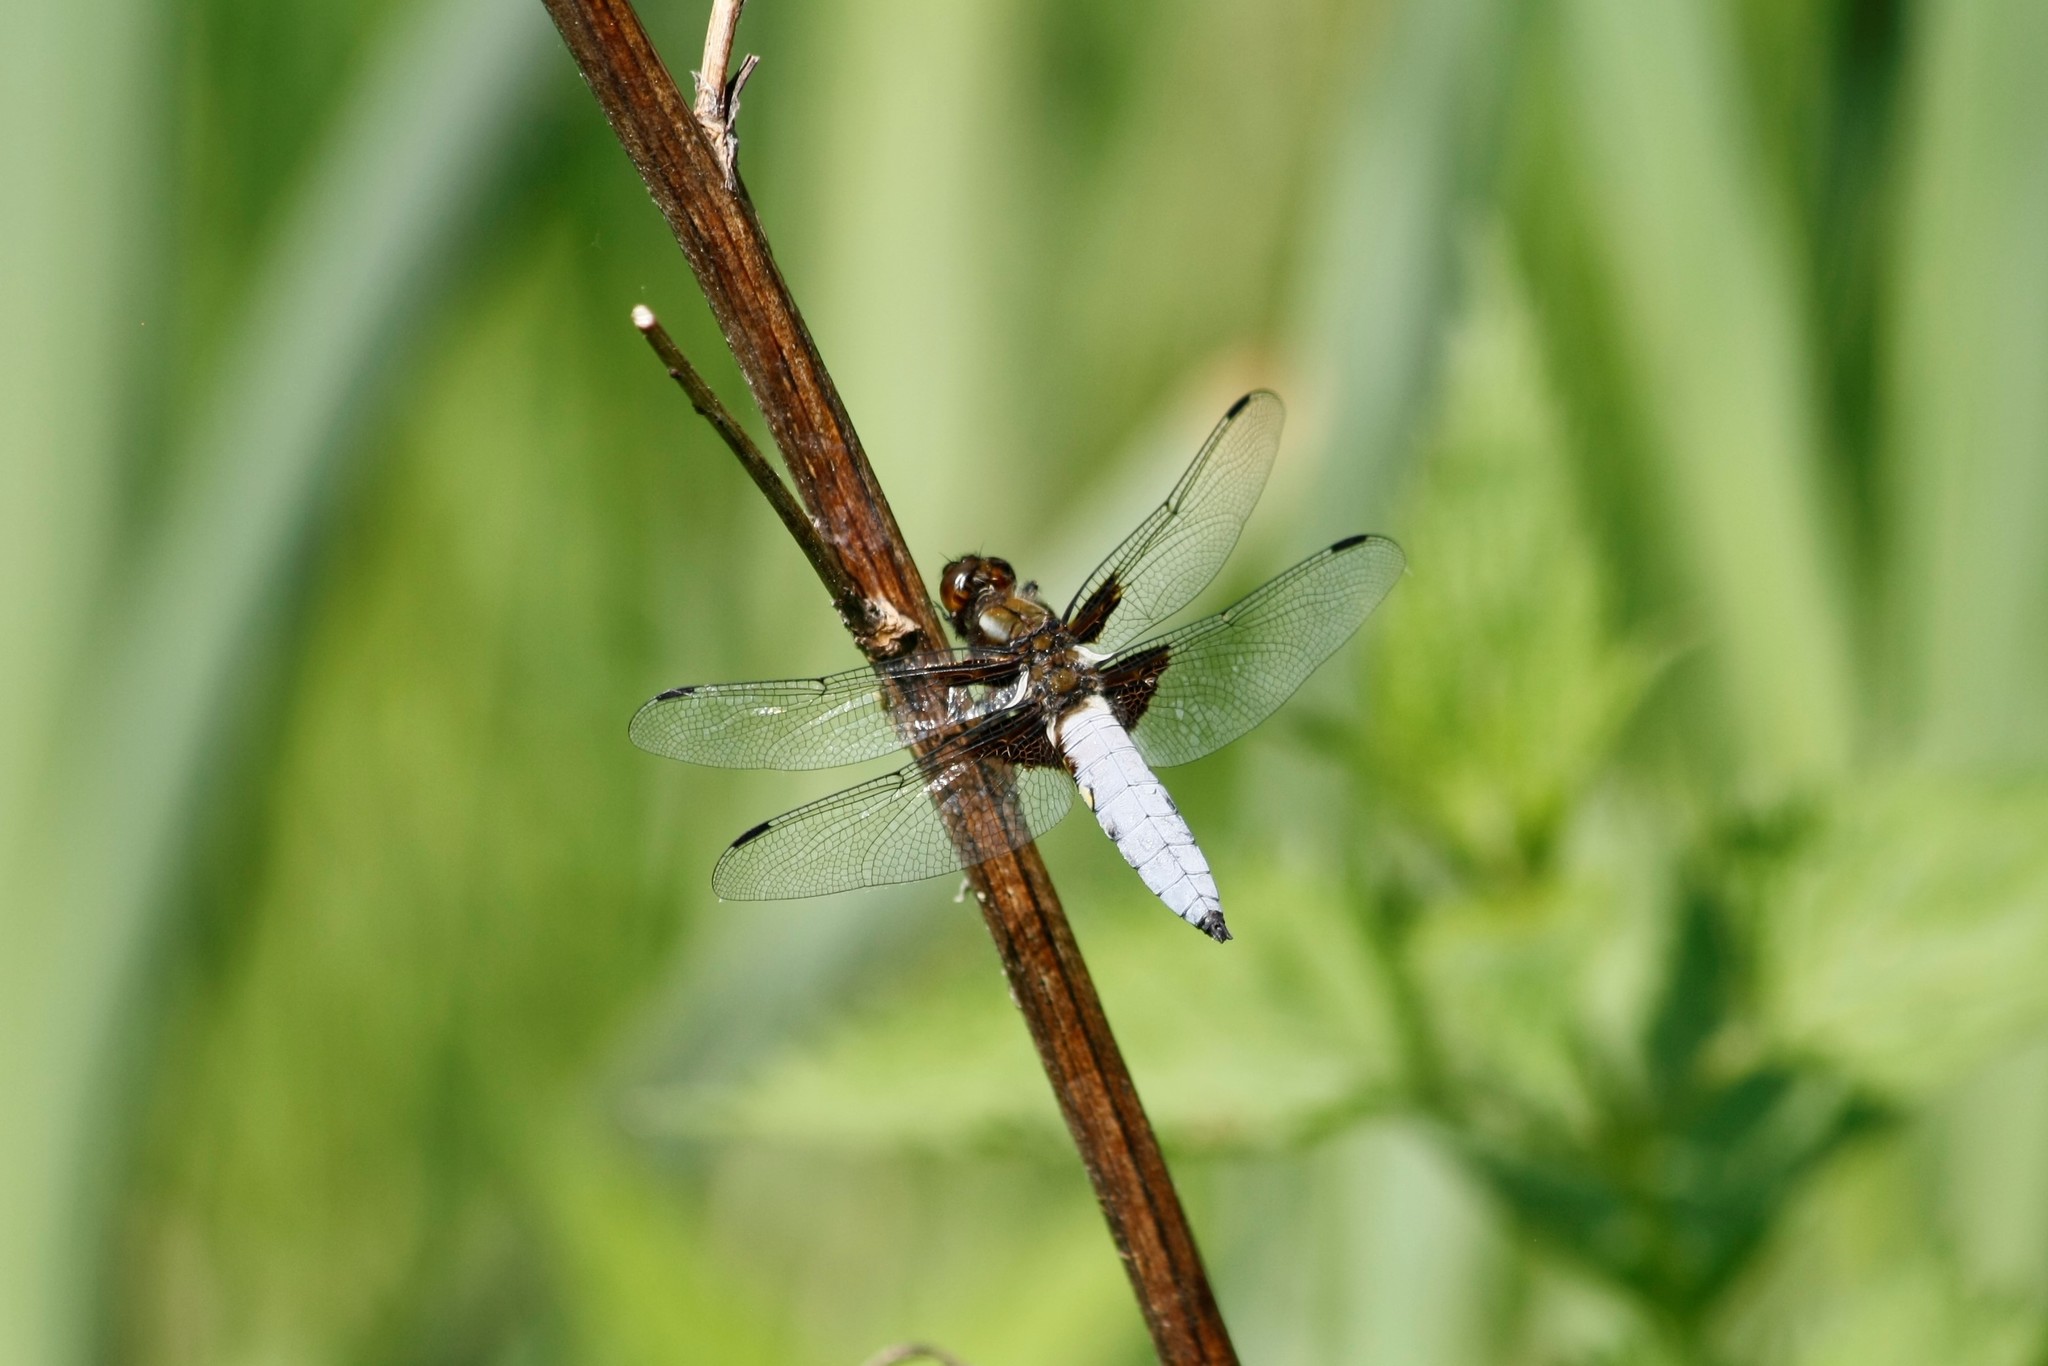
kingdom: Animalia
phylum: Arthropoda
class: Insecta
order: Odonata
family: Libellulidae
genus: Libellula
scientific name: Libellula depressa
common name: Broad-bodied chaser
